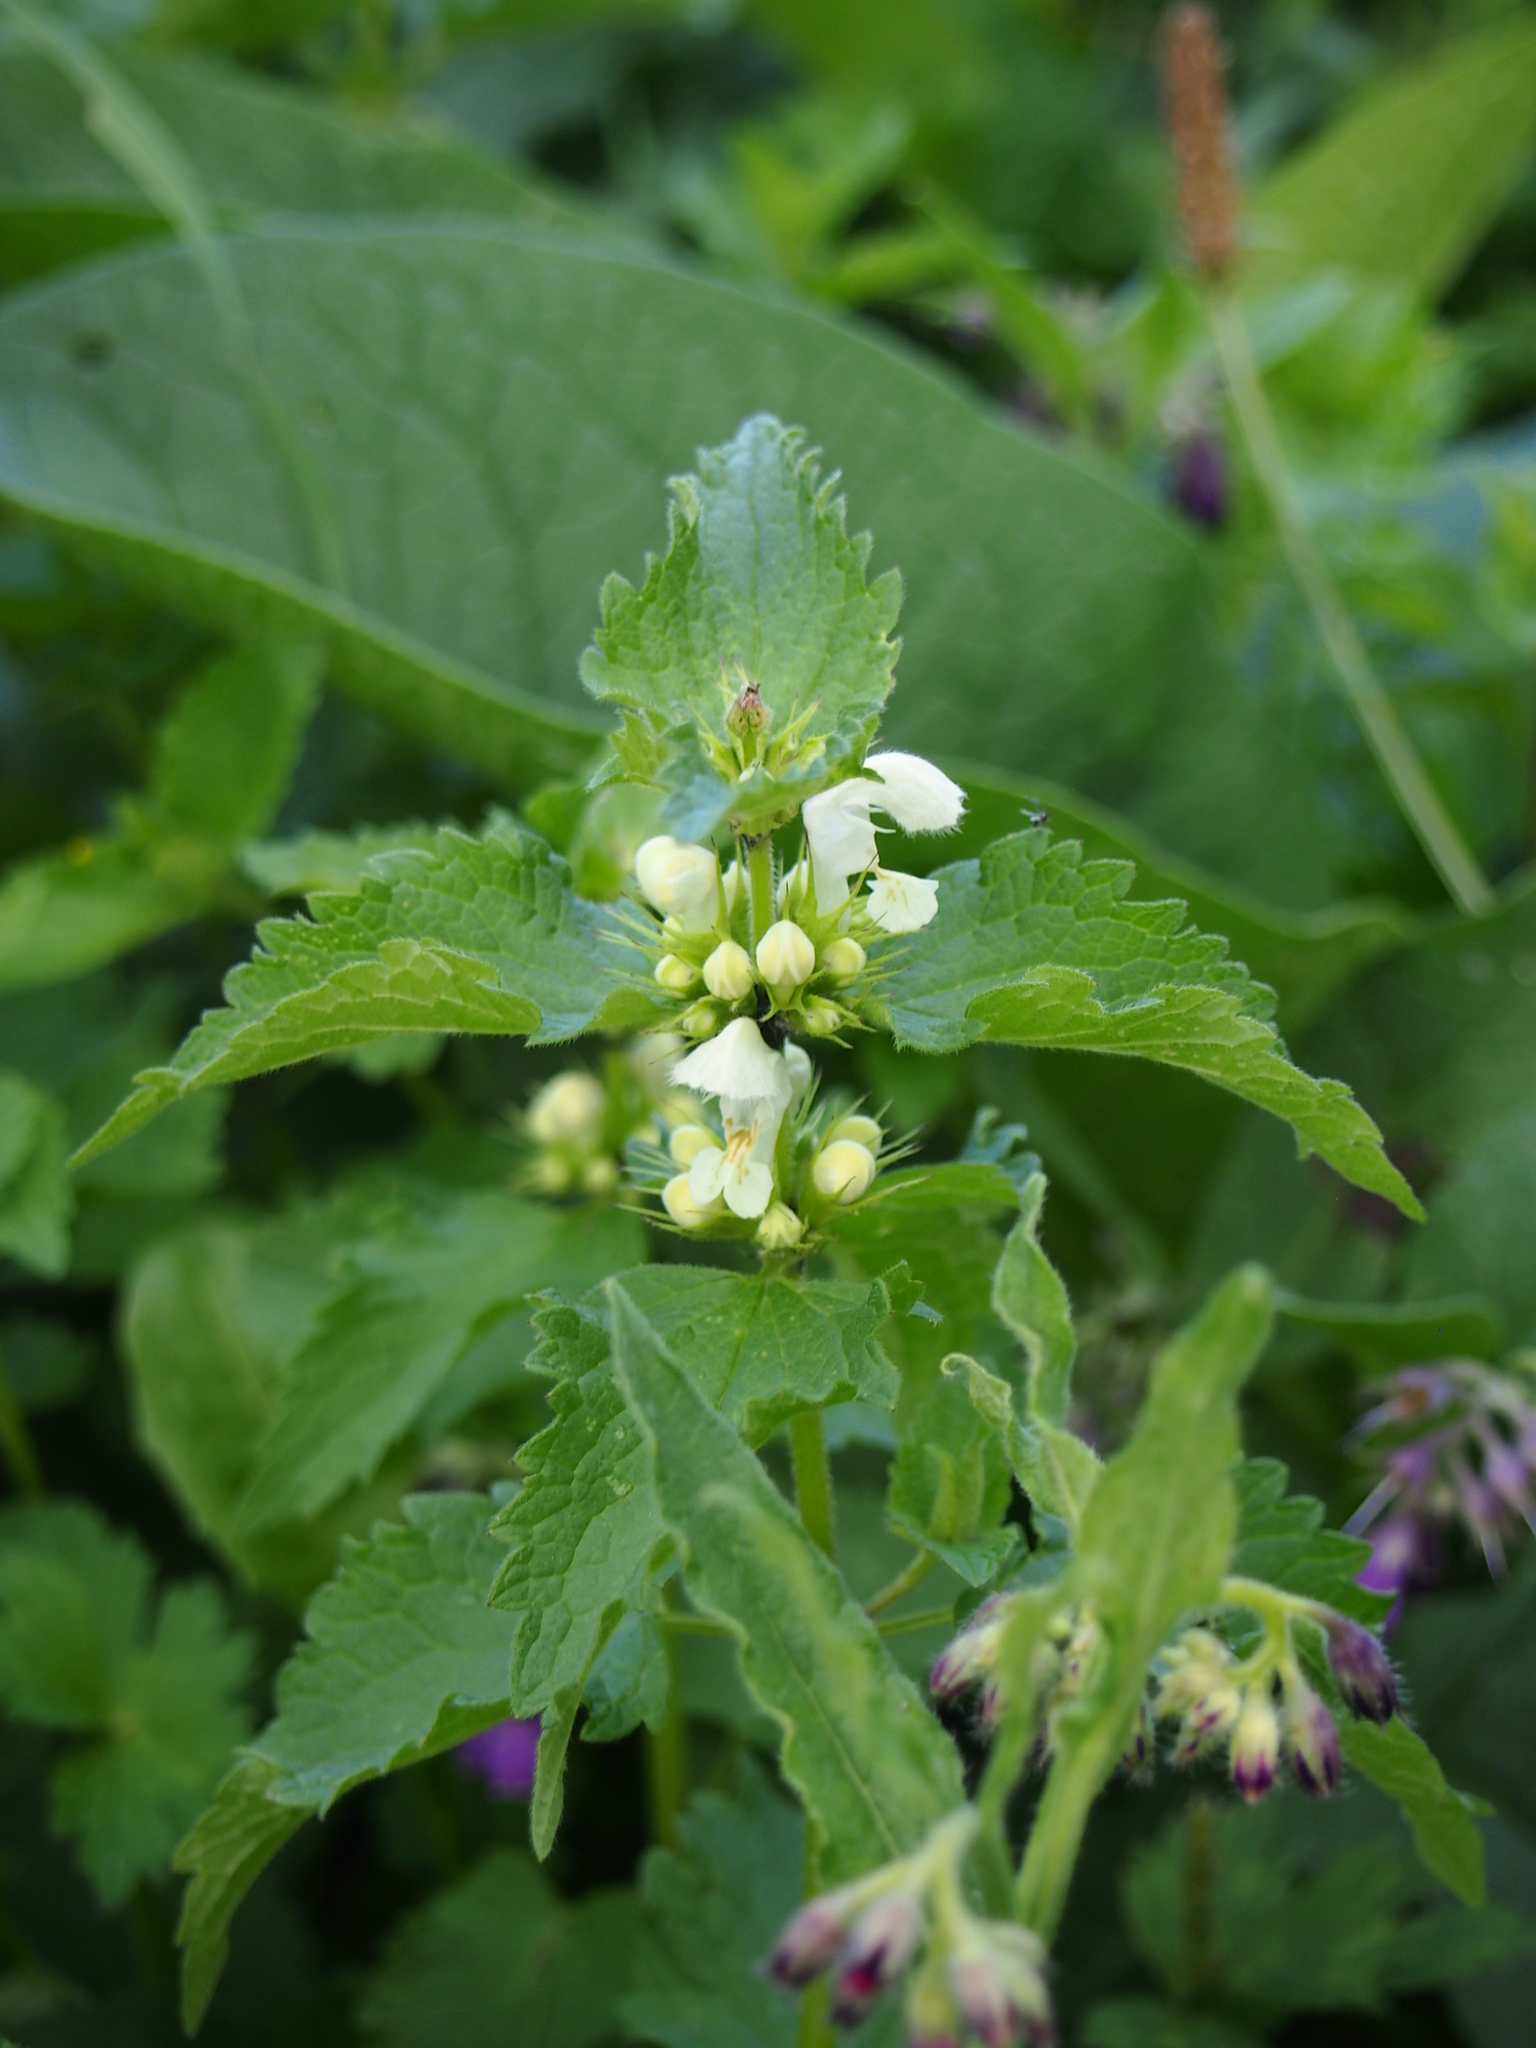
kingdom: Plantae
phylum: Tracheophyta
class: Magnoliopsida
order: Lamiales
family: Lamiaceae
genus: Lamium
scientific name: Lamium album
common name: White dead-nettle
